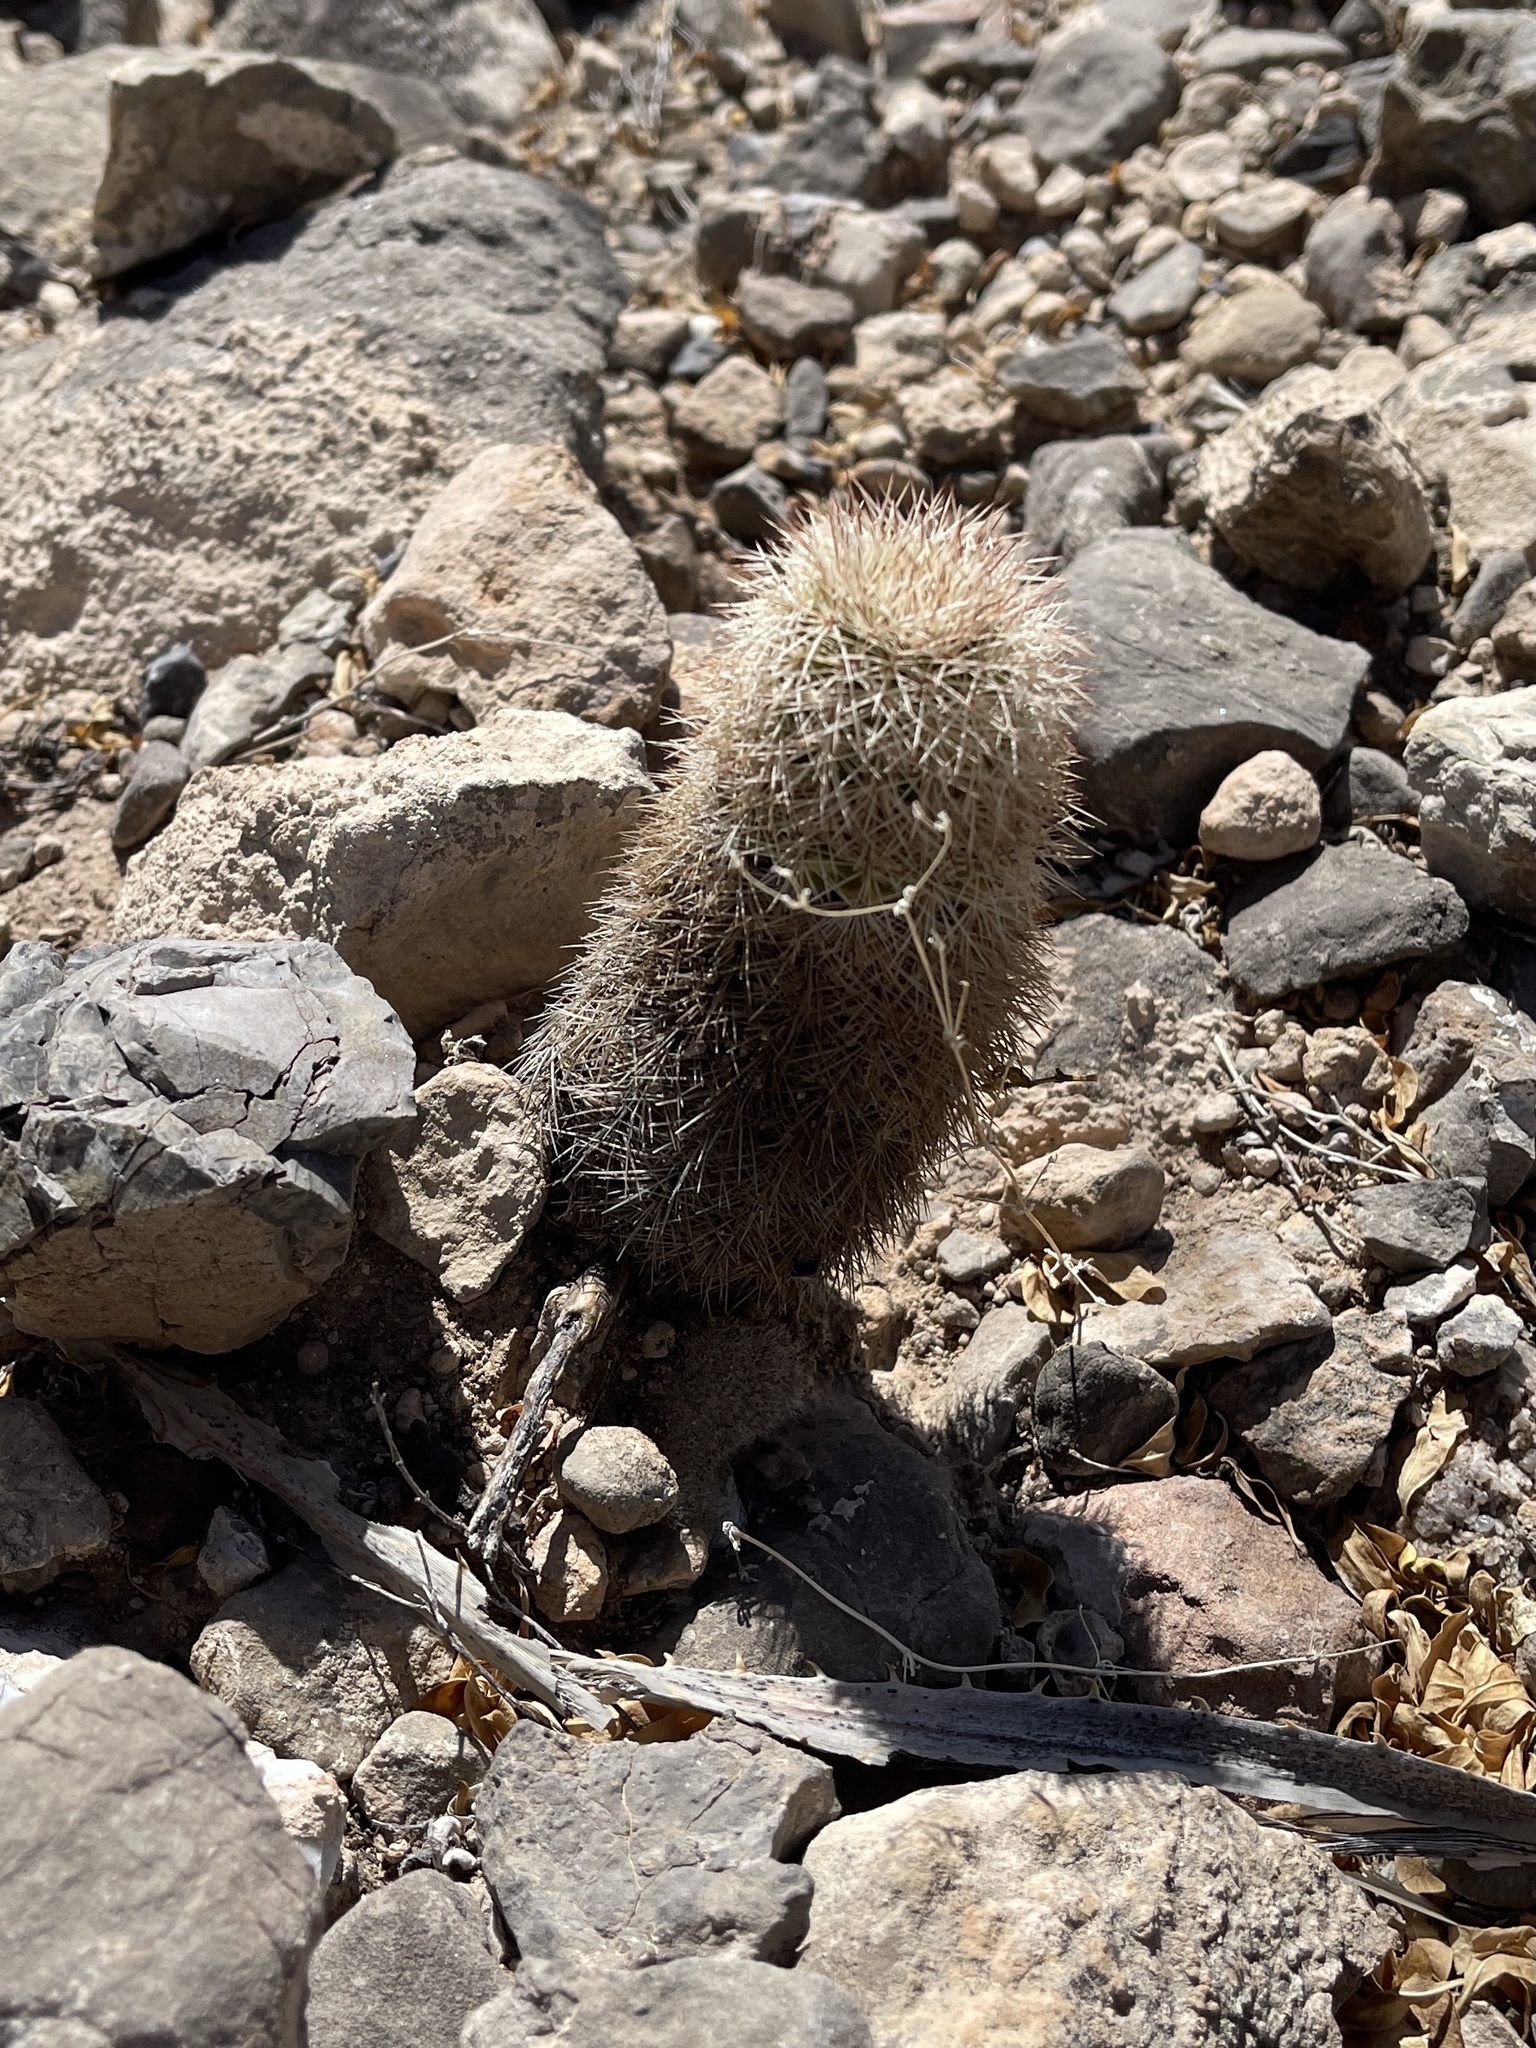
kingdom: Plantae
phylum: Tracheophyta
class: Magnoliopsida
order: Caryophyllales
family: Cactaceae
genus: Echinocereus
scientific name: Echinocereus dasyacanthus
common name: Spiny hedgehog cactus
